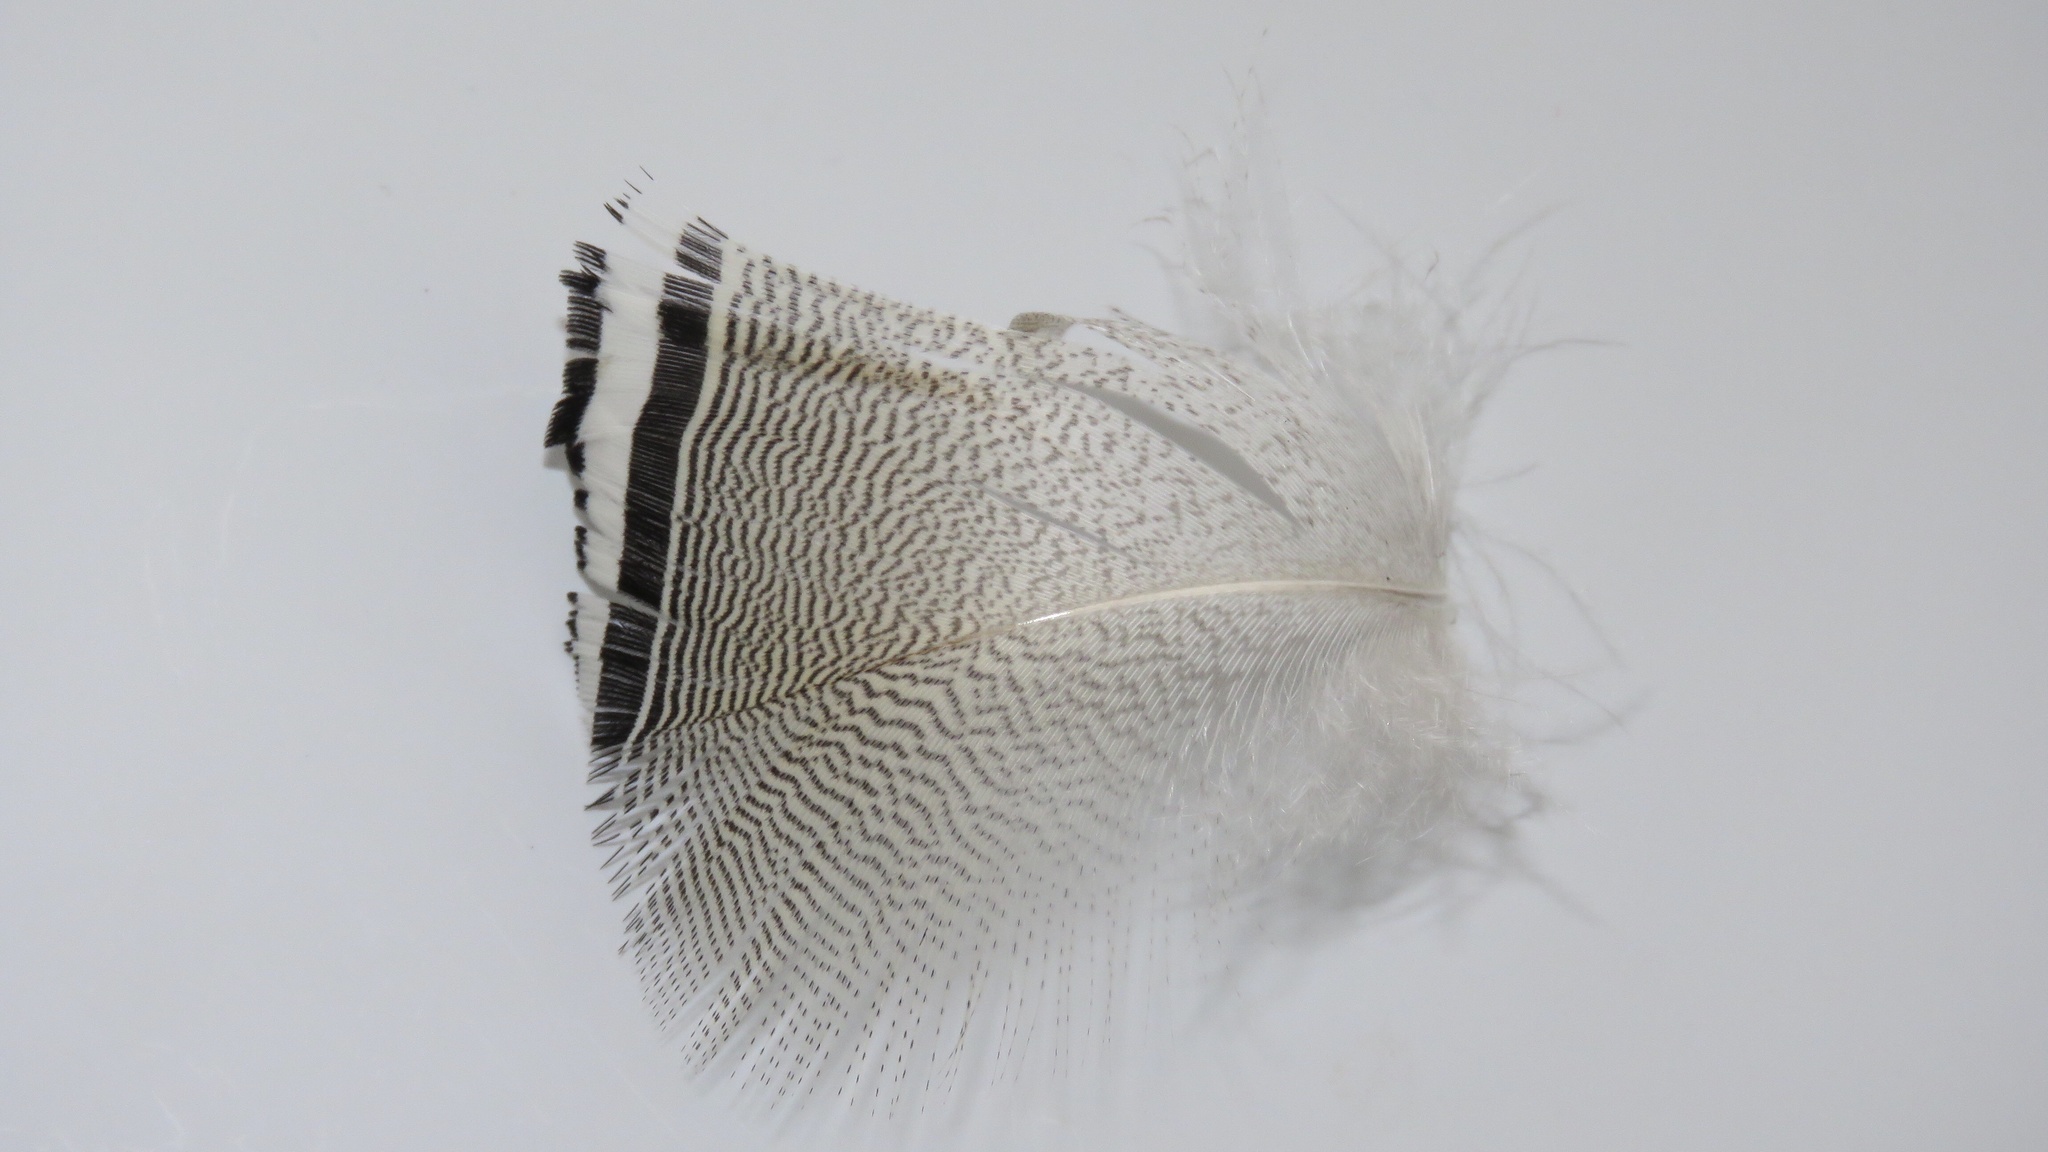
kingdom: Animalia
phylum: Chordata
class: Aves
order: Anseriformes
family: Anatidae
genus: Aix
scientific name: Aix sponsa
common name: Wood duck
